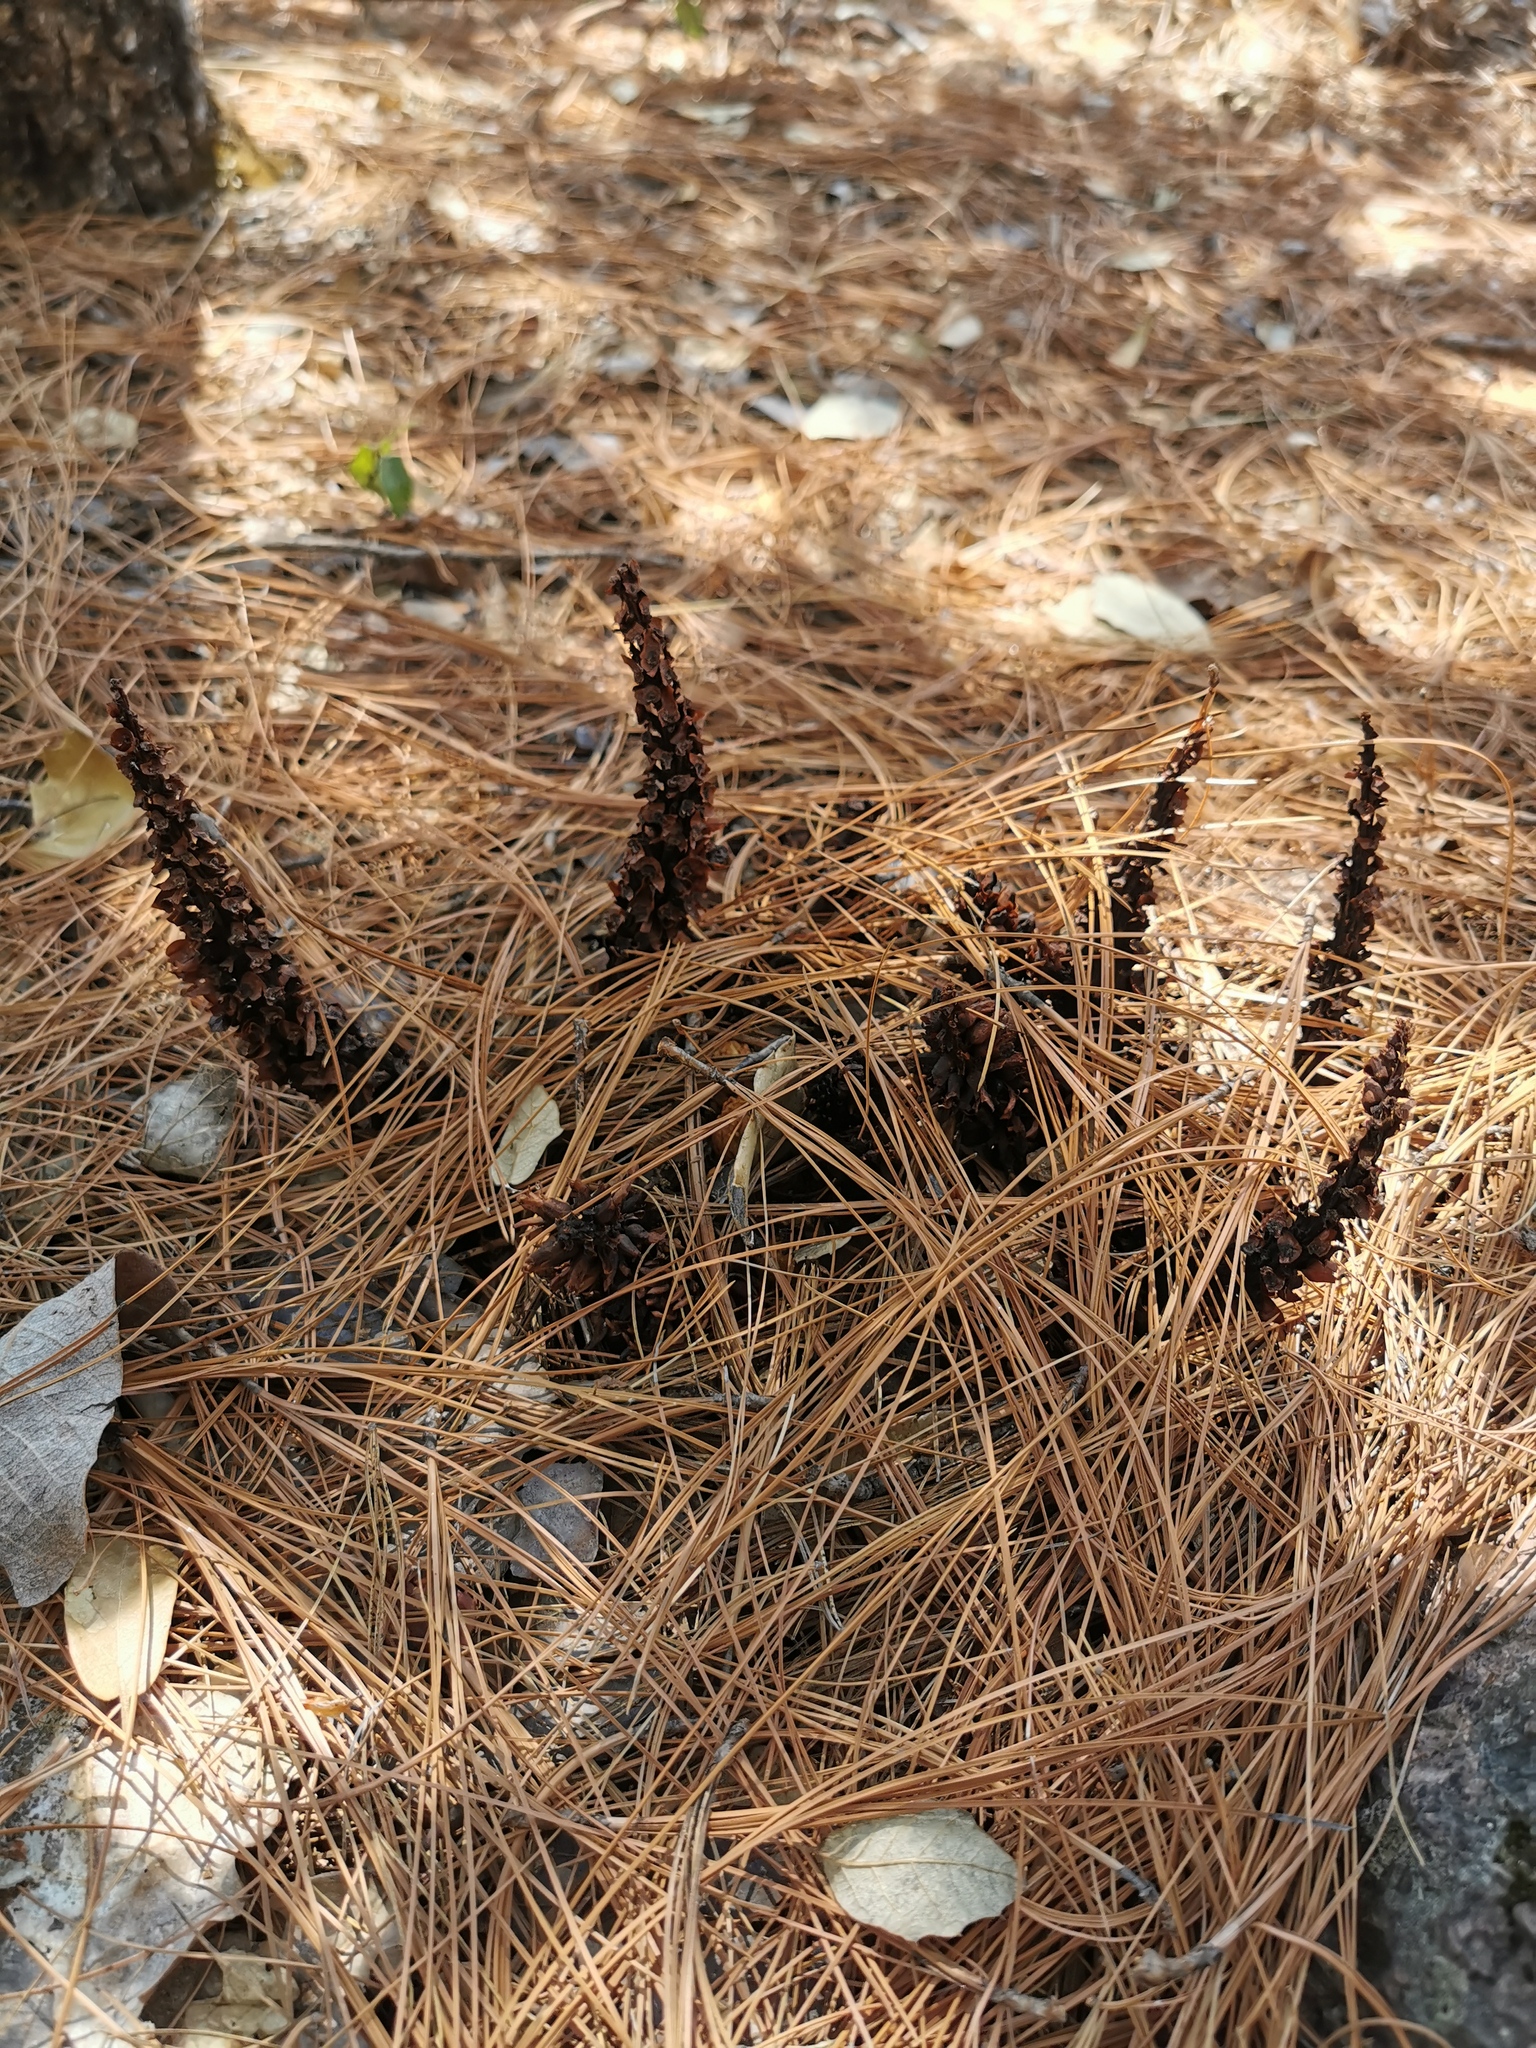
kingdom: Plantae
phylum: Tracheophyta
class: Magnoliopsida
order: Lamiales
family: Orobanchaceae
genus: Conopholis
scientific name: Conopholis alpina
